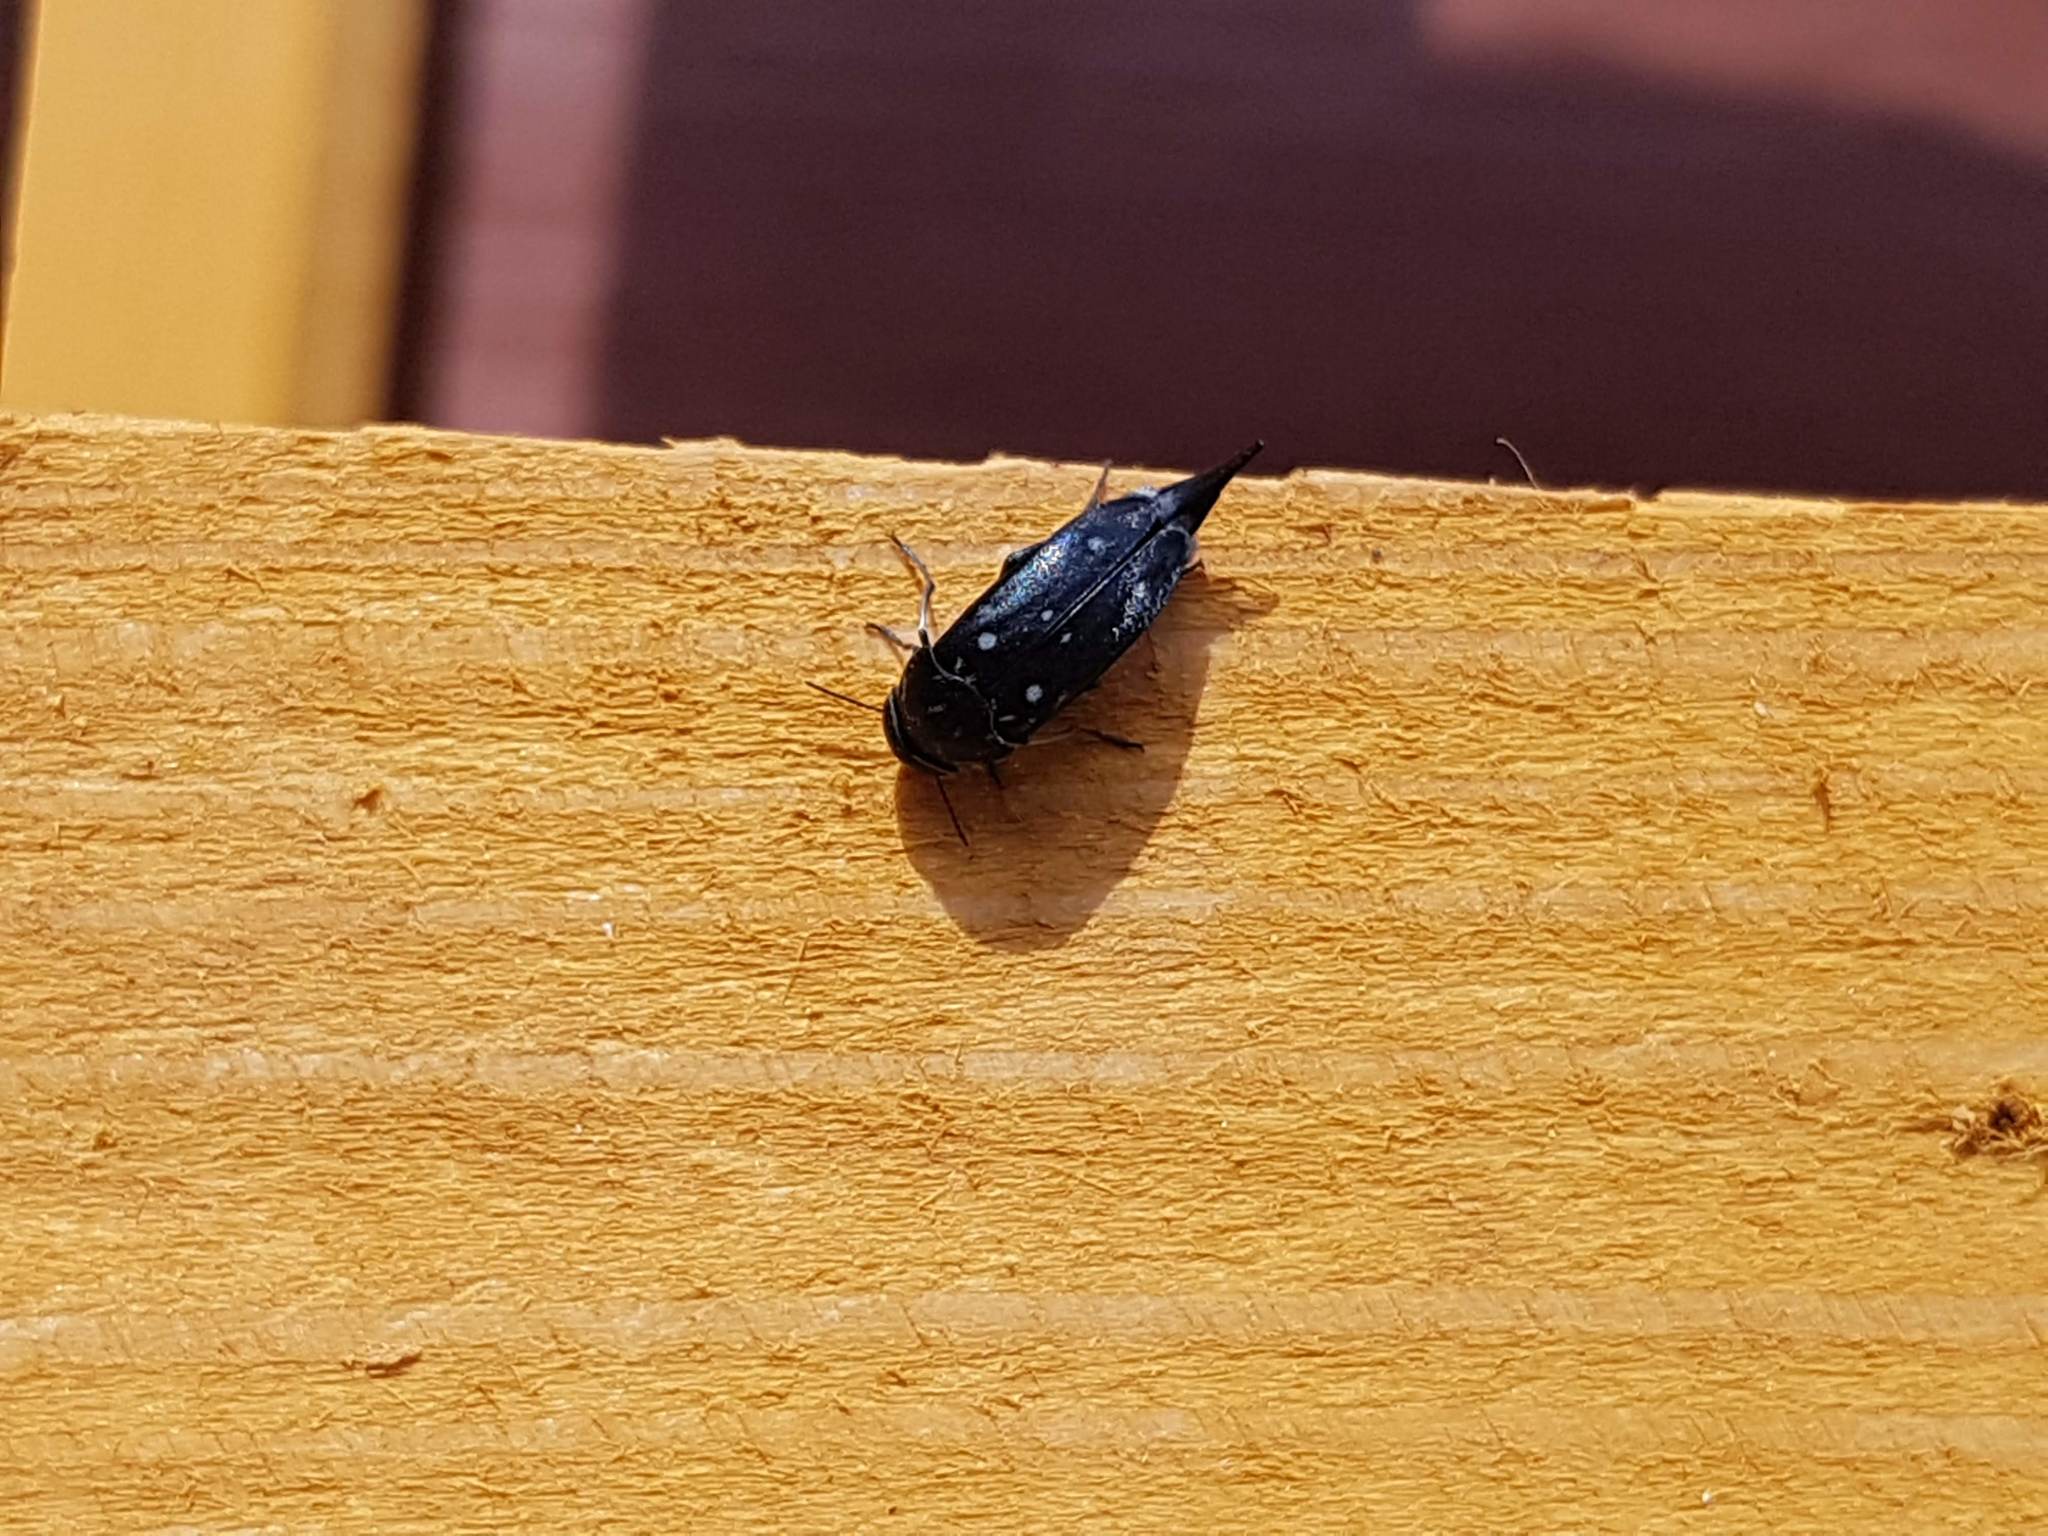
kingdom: Animalia
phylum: Arthropoda
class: Insecta
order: Coleoptera
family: Mordellidae
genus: Hoshihananomia
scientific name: Hoshihananomia perlata
